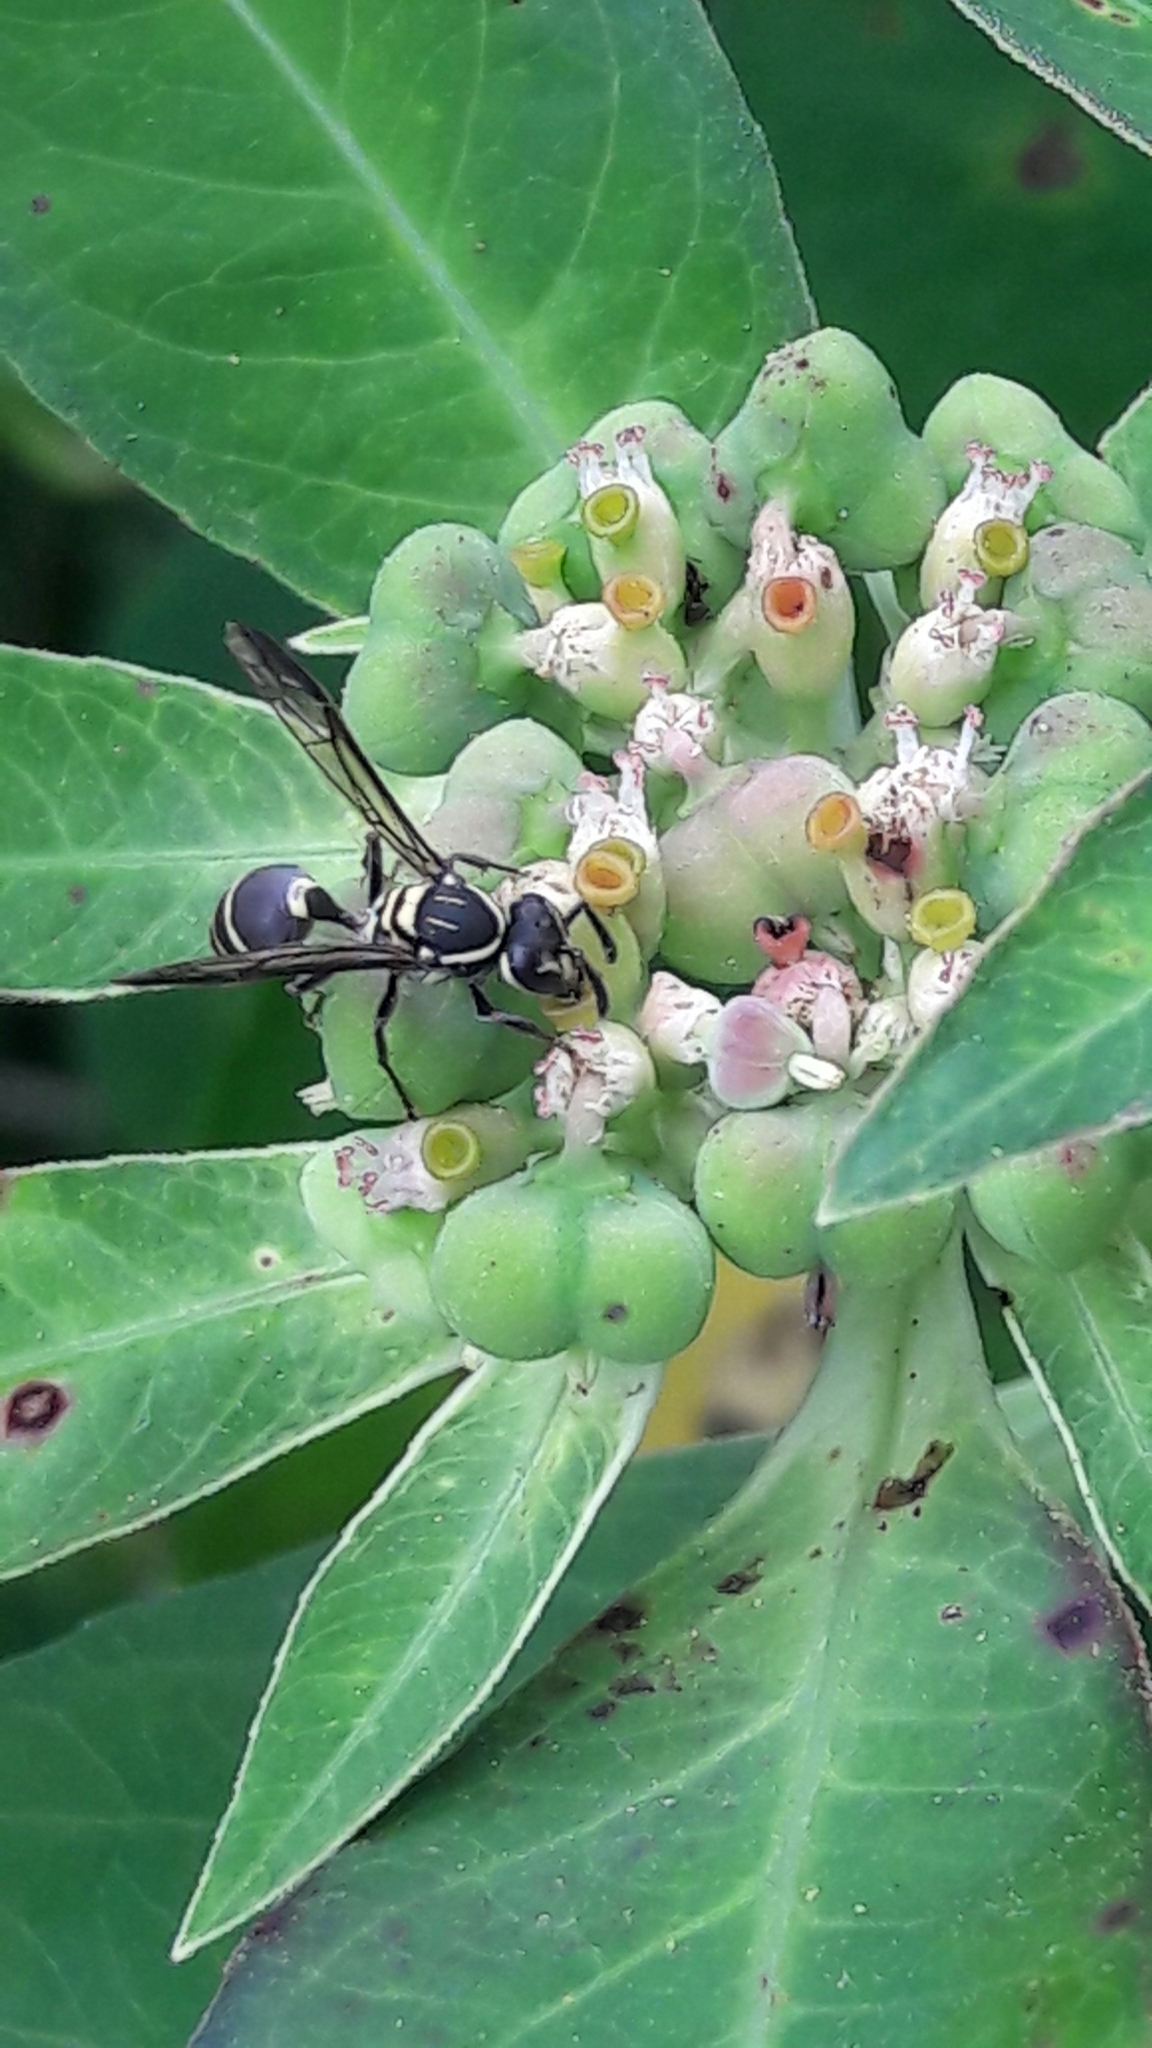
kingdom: Animalia
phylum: Arthropoda
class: Insecta
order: Hymenoptera
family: Eumenidae
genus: Polybia
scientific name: Polybia occidentalis
